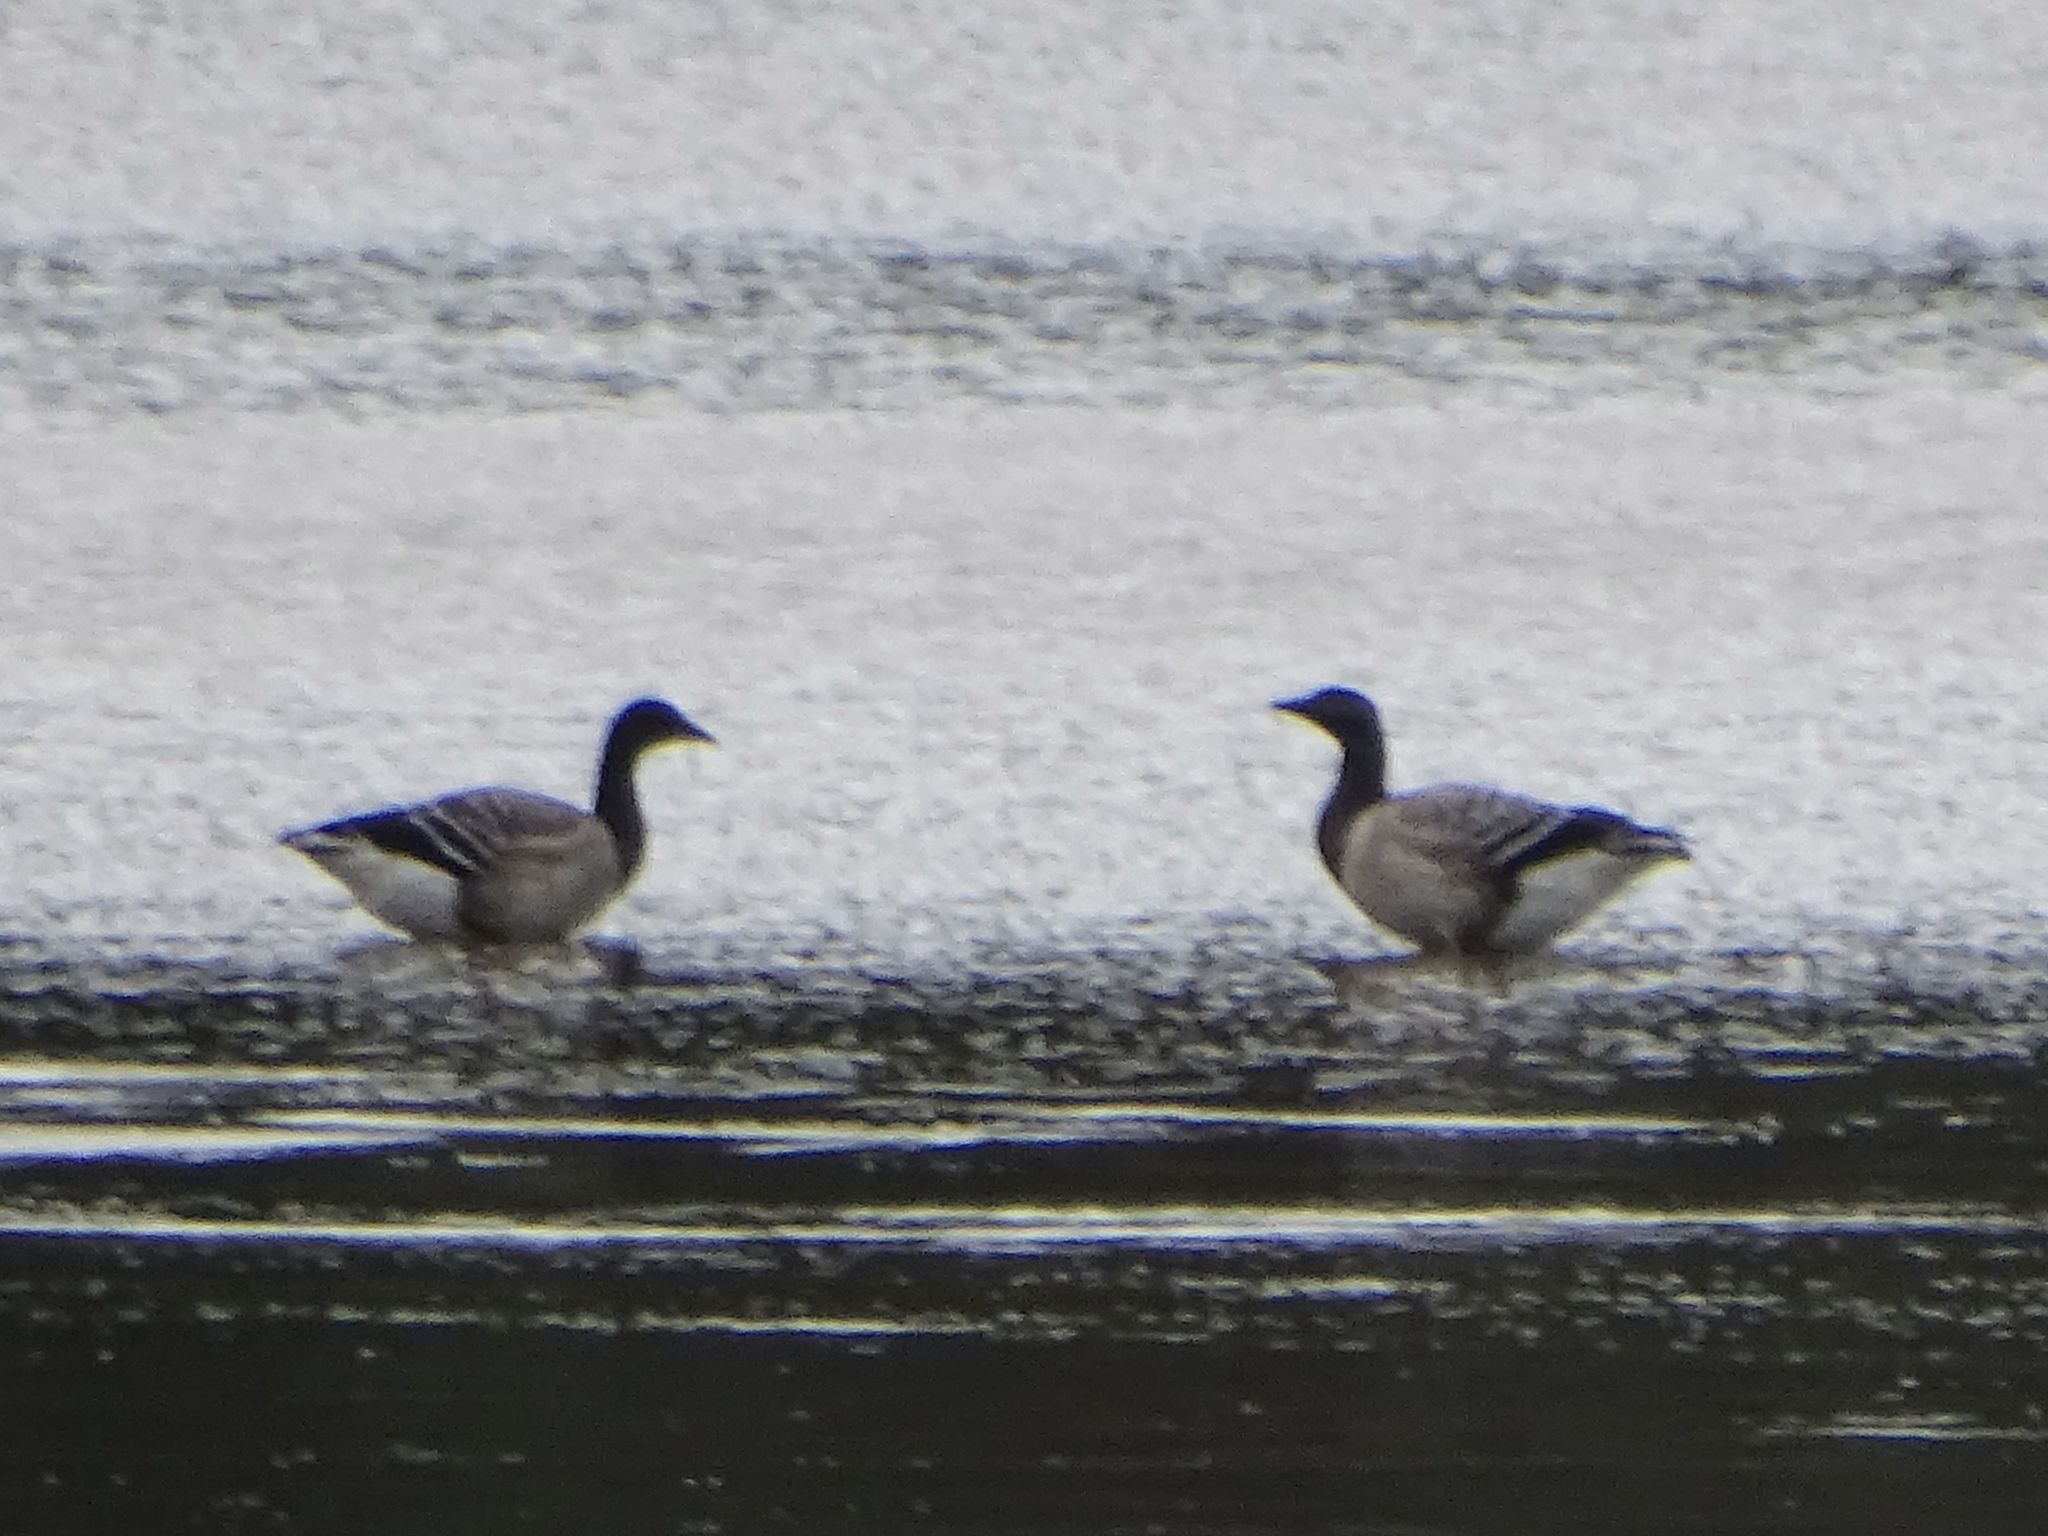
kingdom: Animalia
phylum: Chordata
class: Aves
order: Anseriformes
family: Anatidae
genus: Branta
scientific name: Branta bernicla
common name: Brant goose
